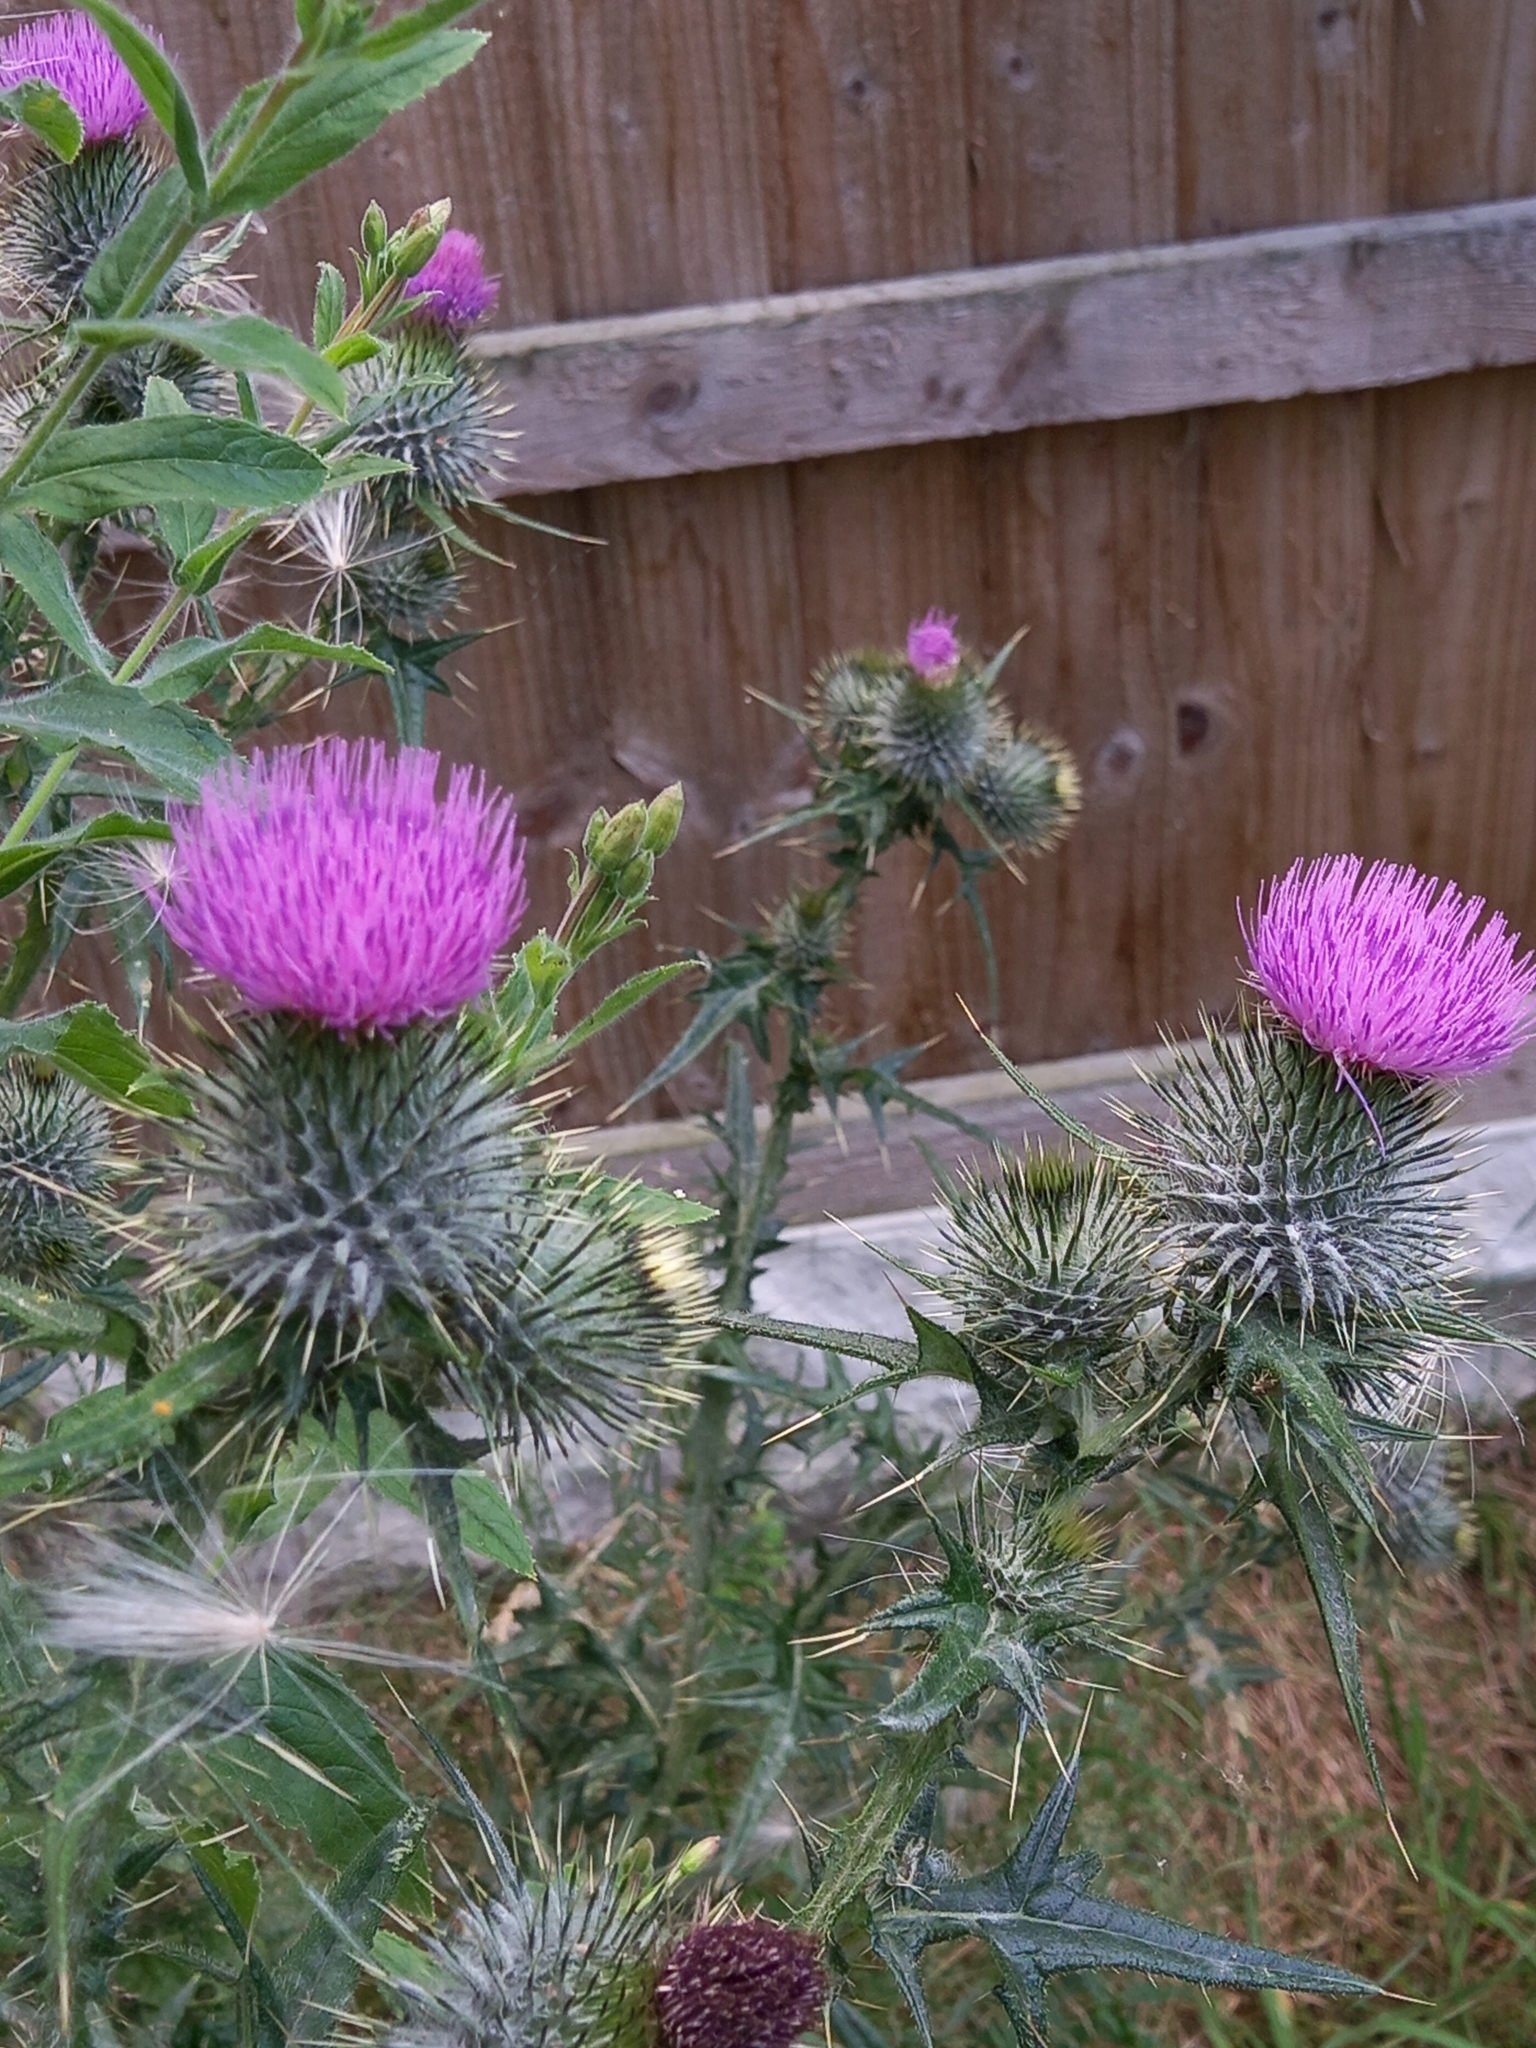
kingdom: Plantae
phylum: Tracheophyta
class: Magnoliopsida
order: Asterales
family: Asteraceae
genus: Cirsium
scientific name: Cirsium vulgare
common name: Bull thistle
